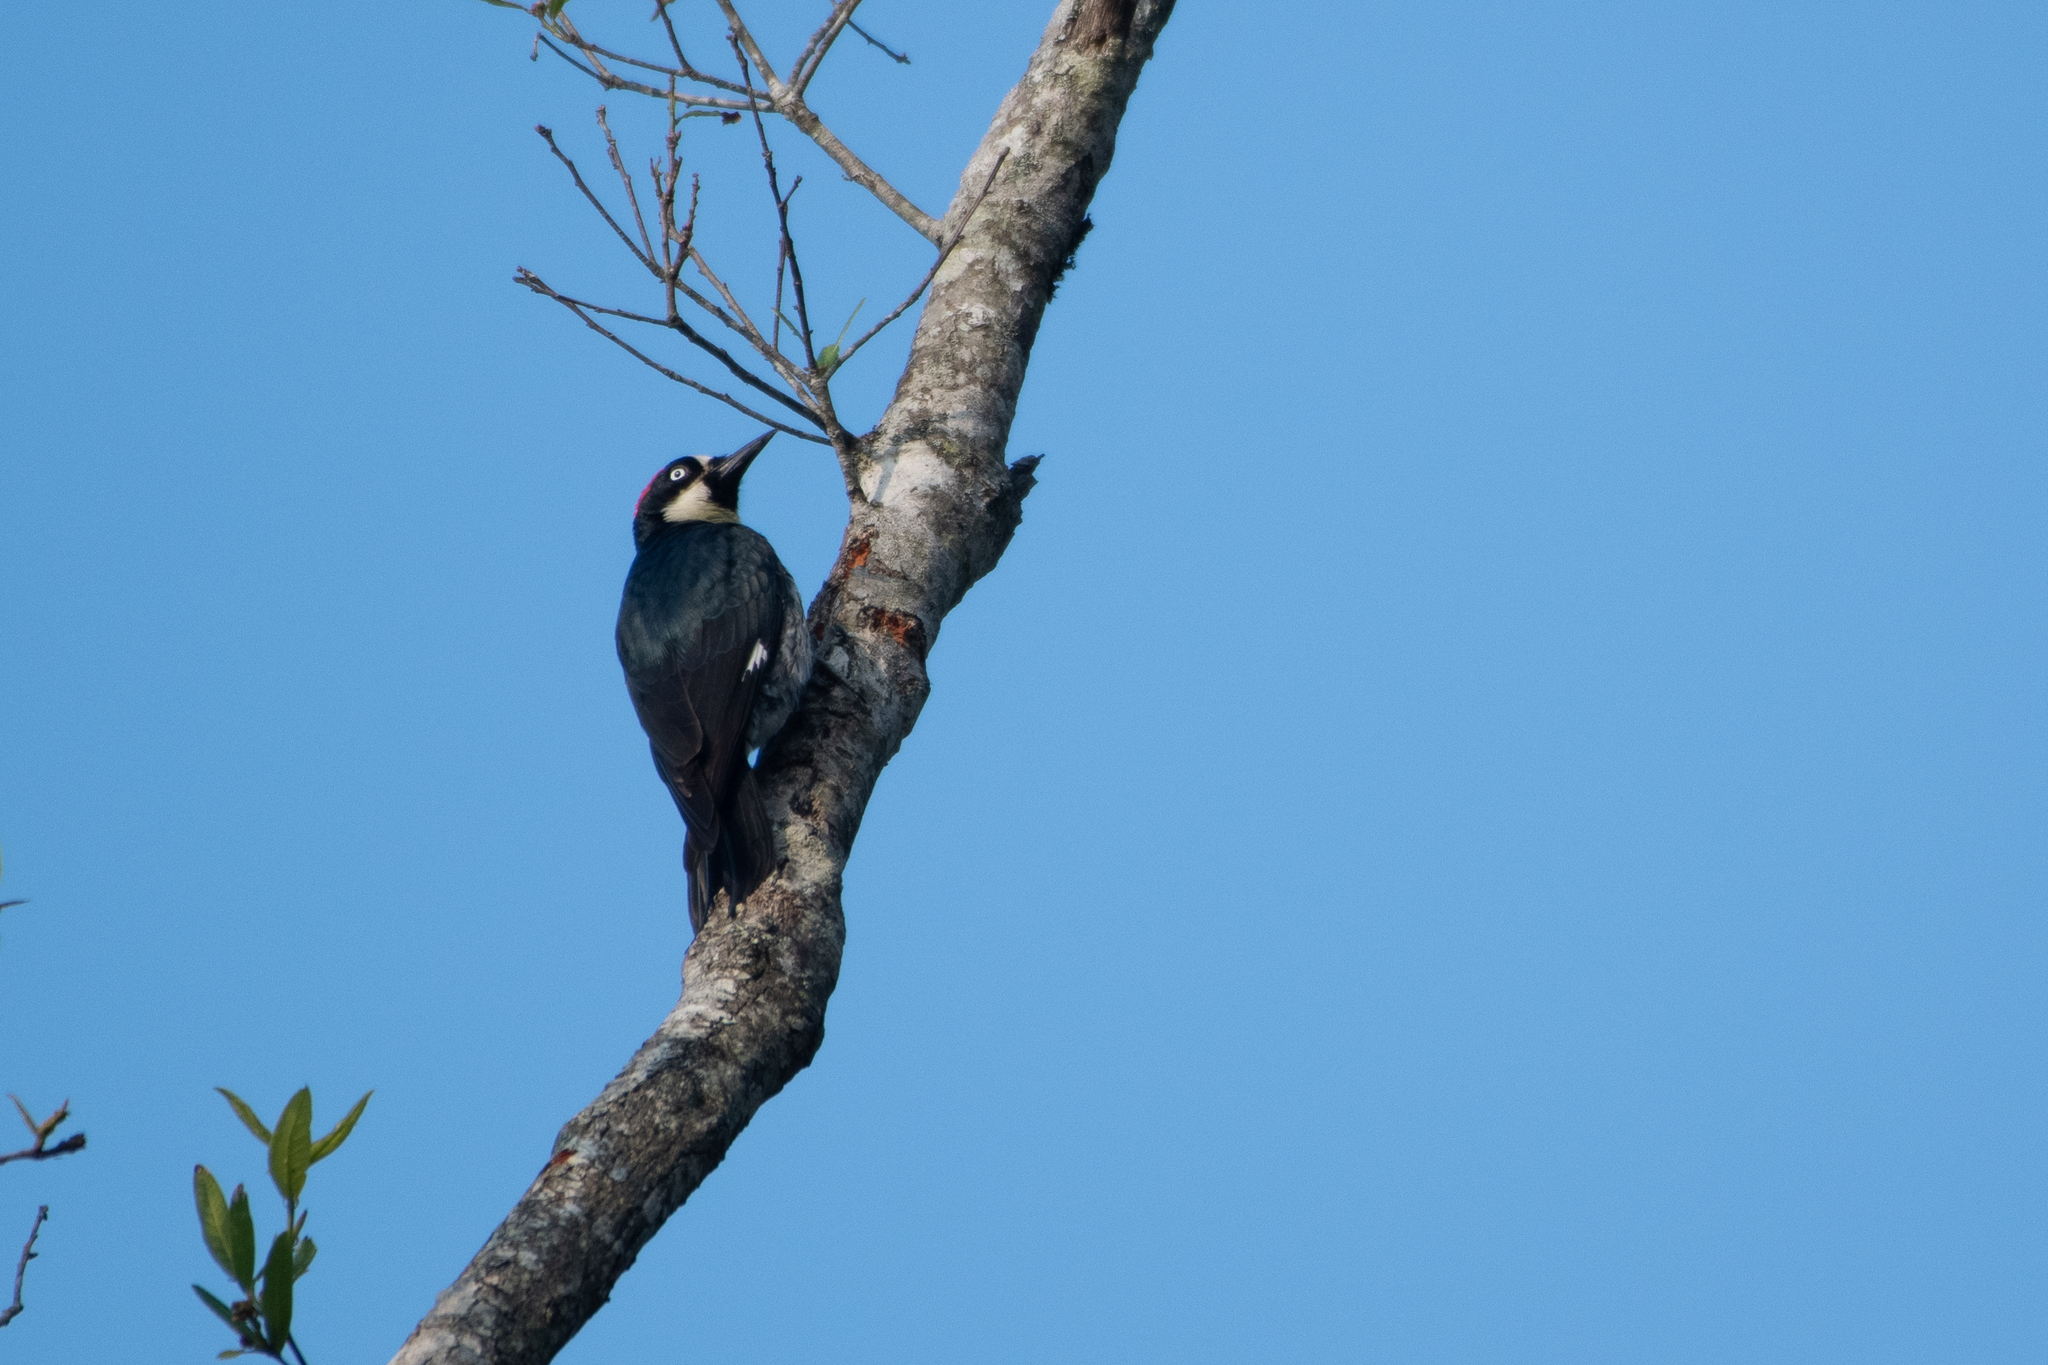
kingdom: Animalia
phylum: Chordata
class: Aves
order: Piciformes
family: Picidae
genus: Melanerpes
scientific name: Melanerpes formicivorus
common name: Acorn woodpecker
